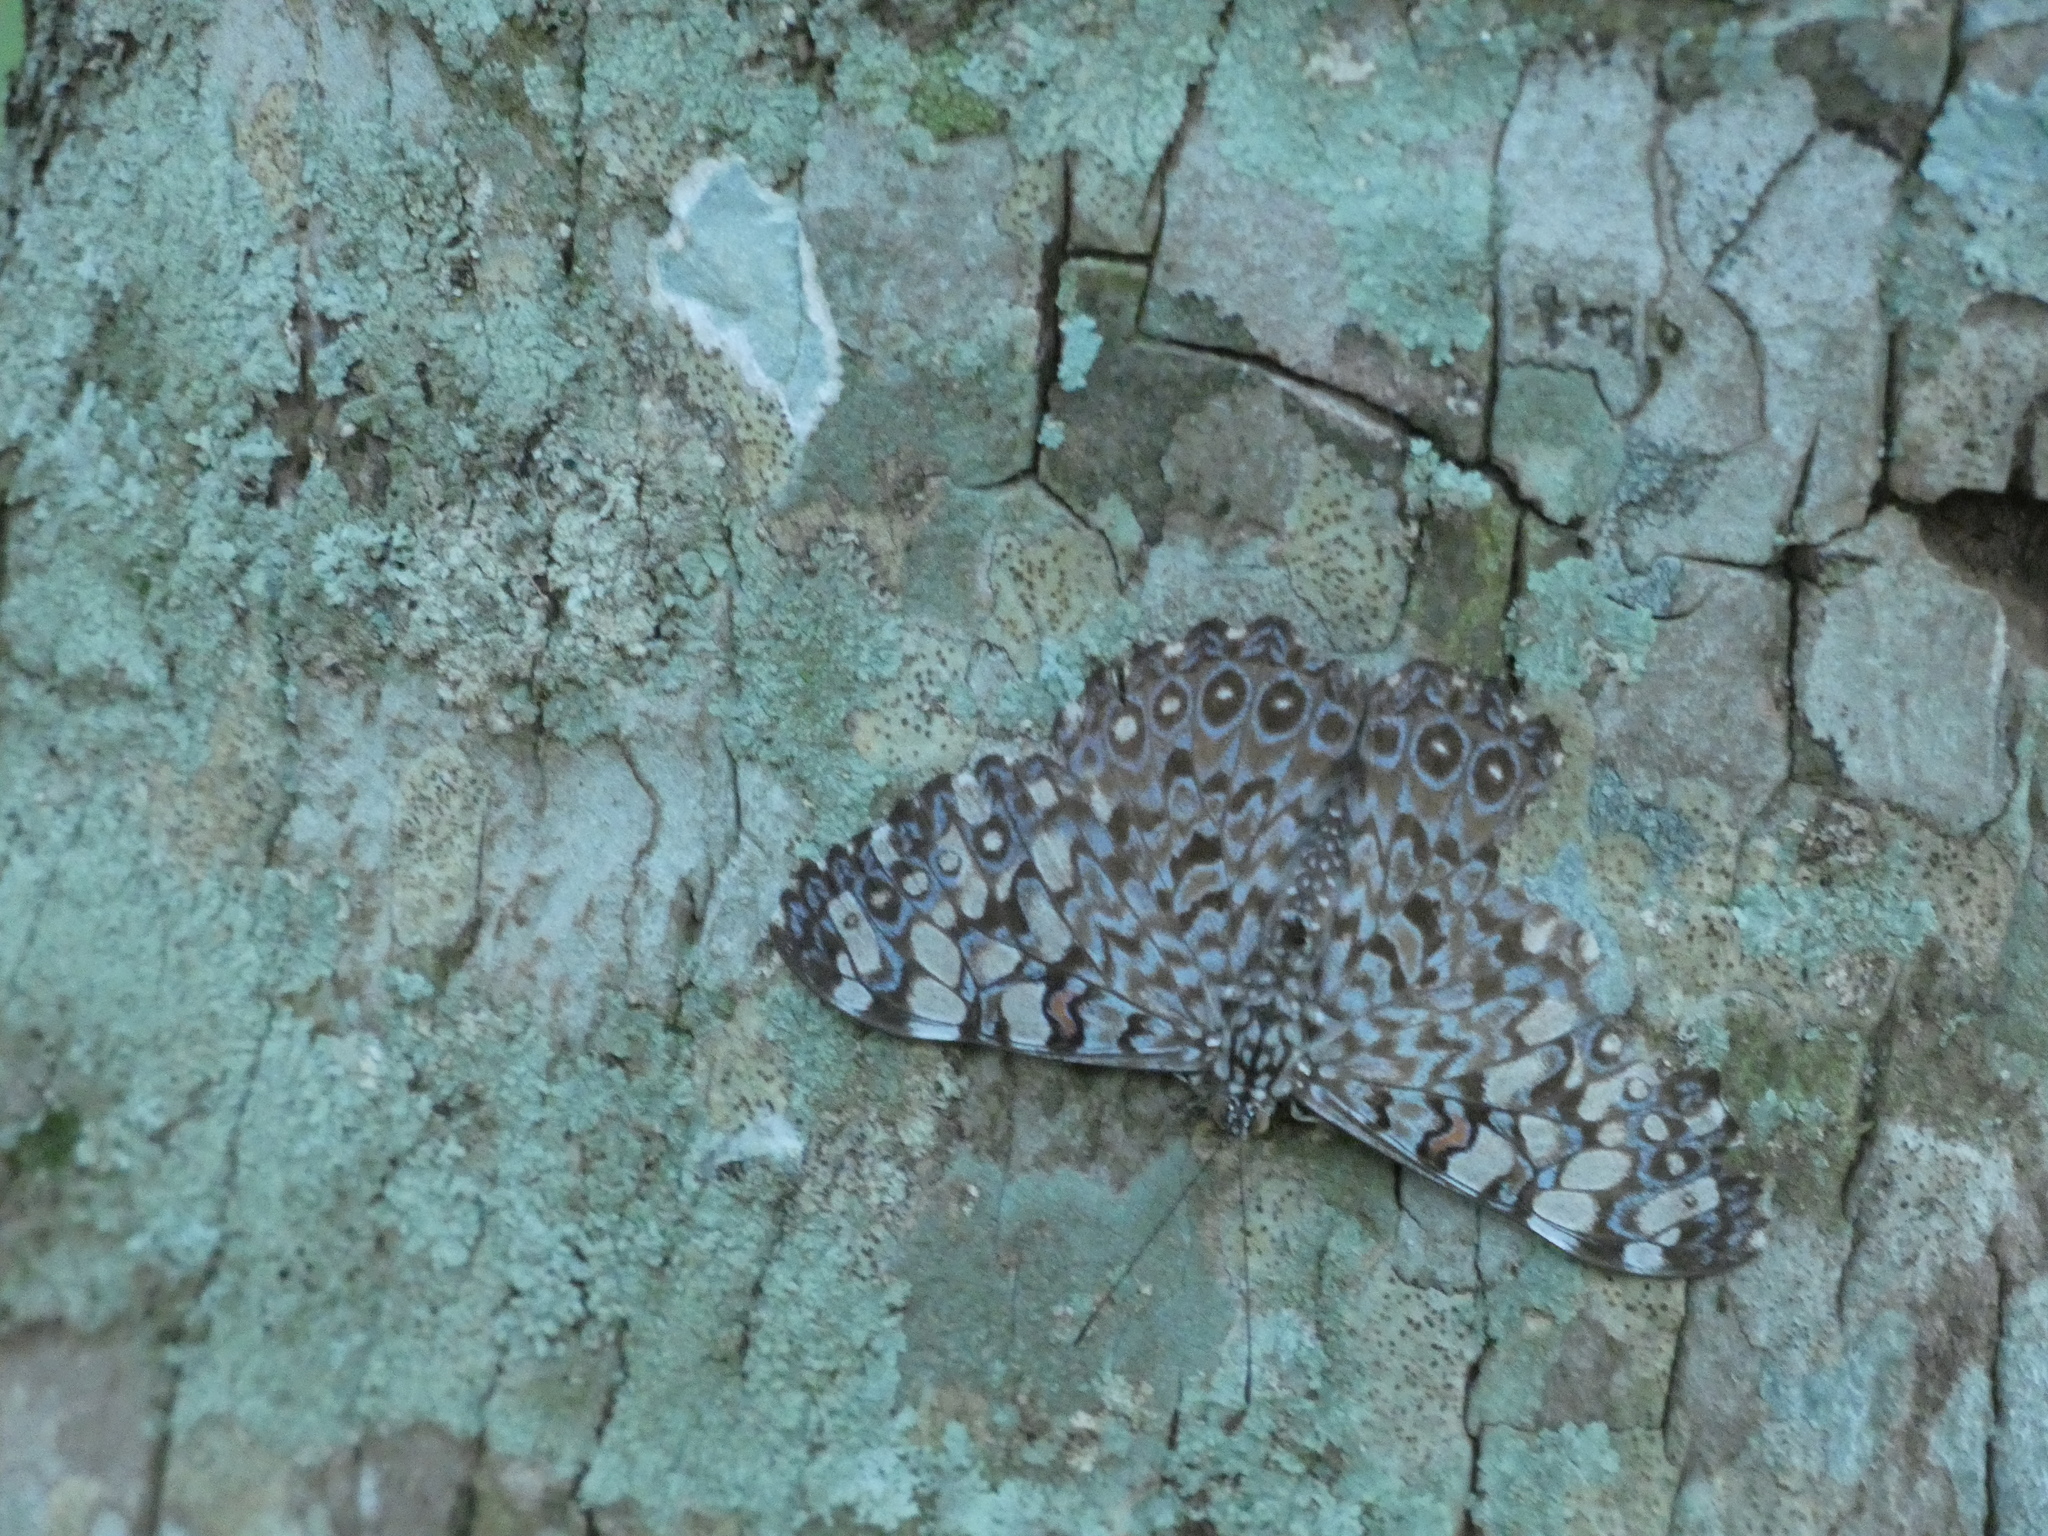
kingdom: Animalia
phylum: Arthropoda
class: Insecta
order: Lepidoptera
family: Nymphalidae
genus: Hamadryas
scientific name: Hamadryas feronia
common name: Variable cracker
